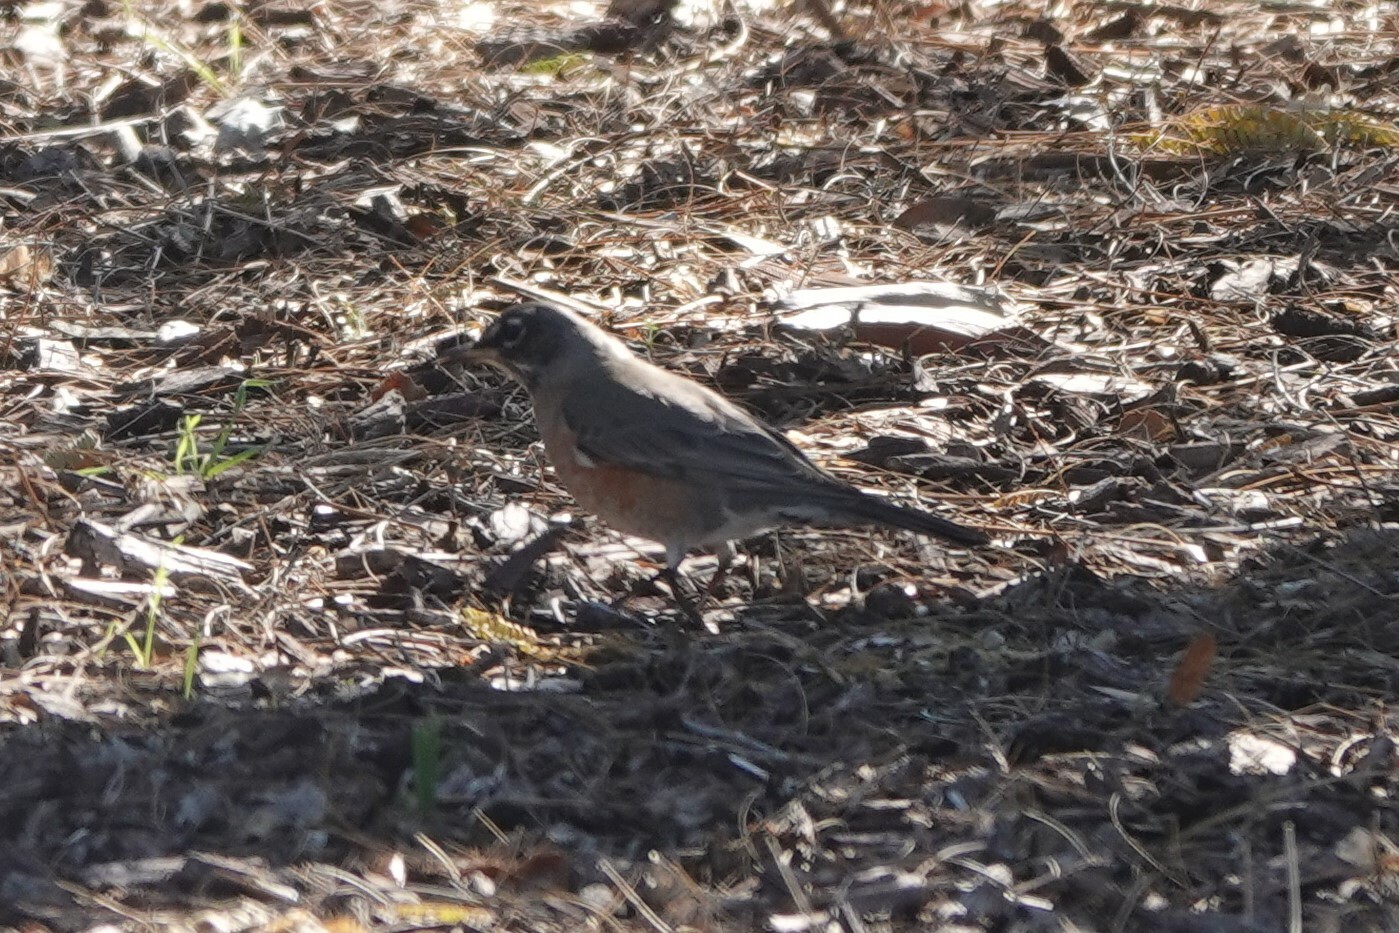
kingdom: Animalia
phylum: Chordata
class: Aves
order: Passeriformes
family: Turdidae
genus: Turdus
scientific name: Turdus migratorius
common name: American robin
